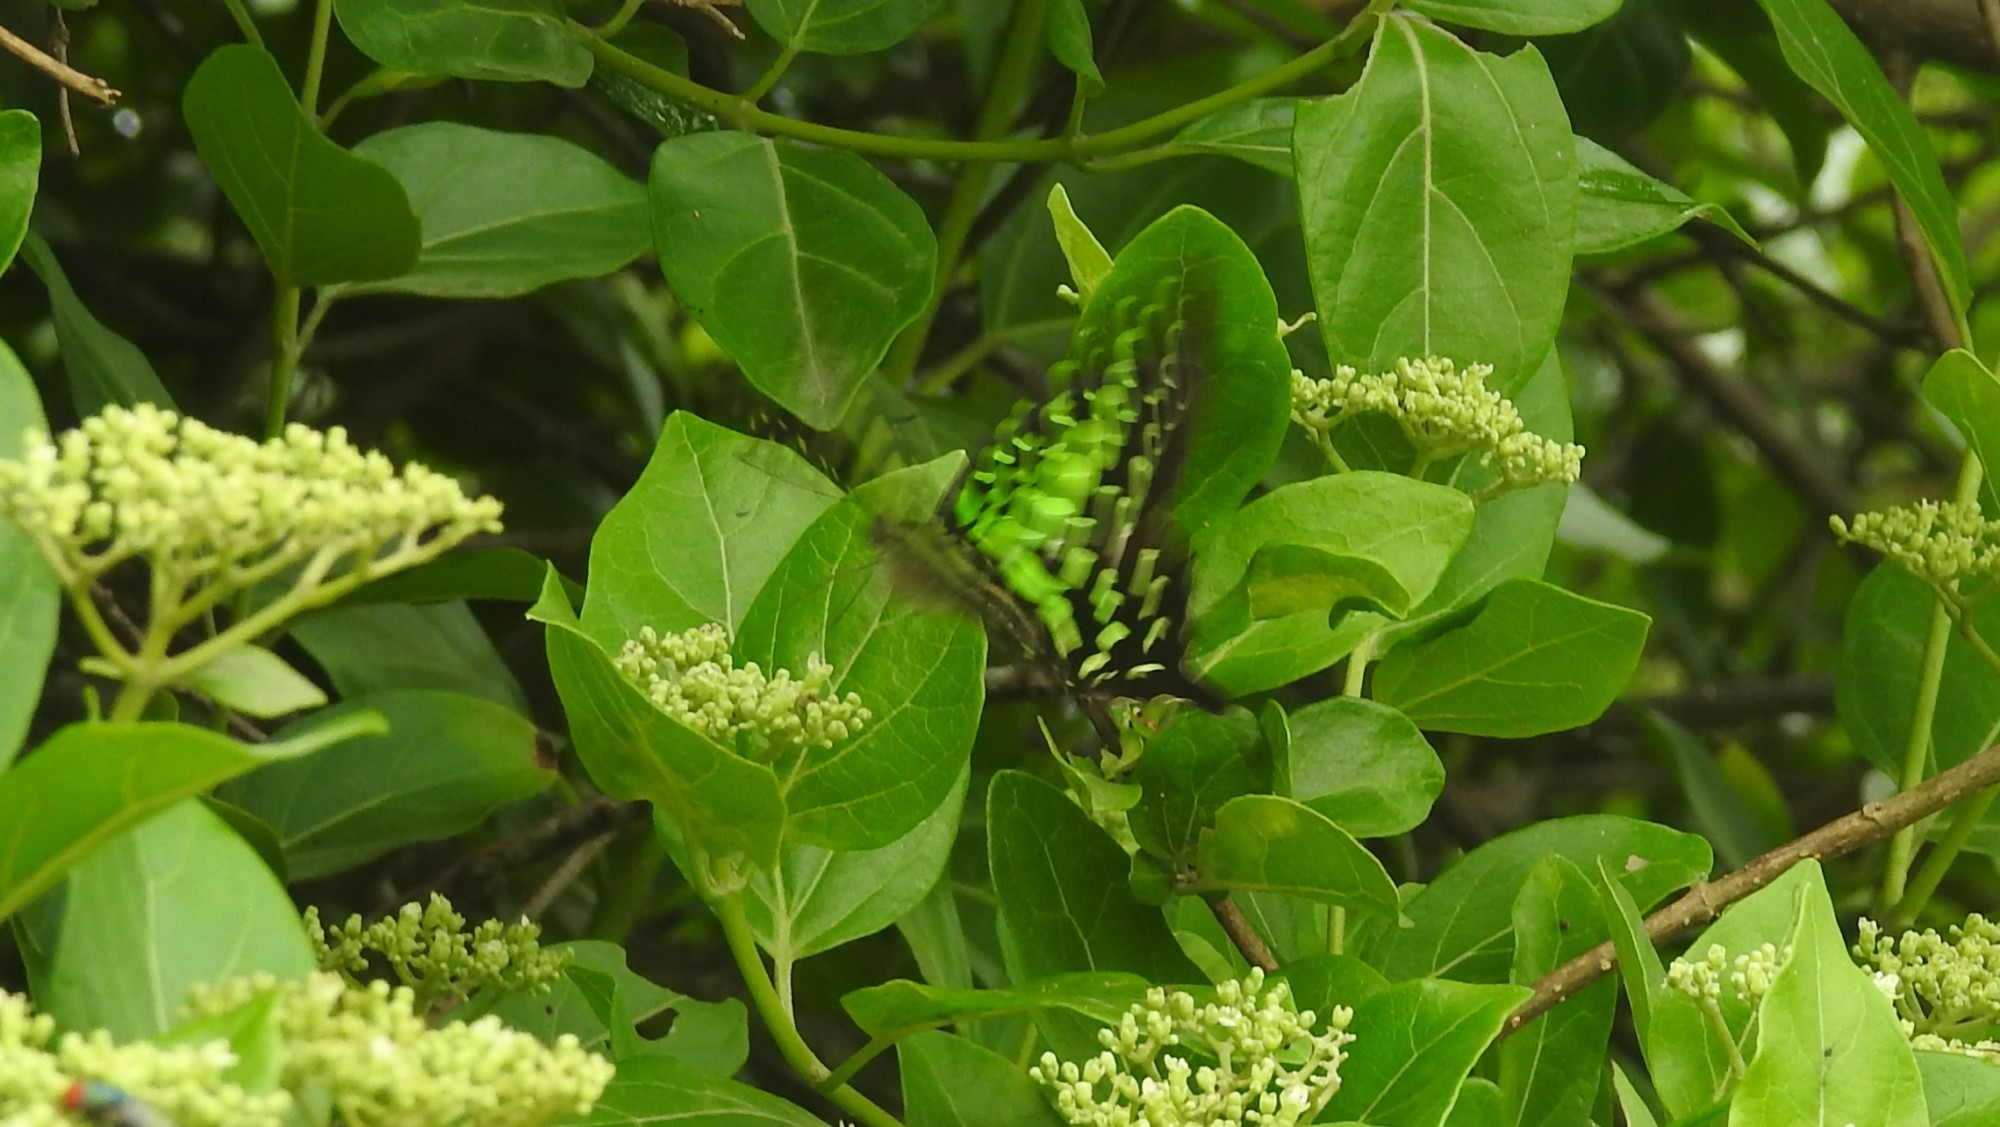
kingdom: Animalia
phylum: Arthropoda
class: Insecta
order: Lepidoptera
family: Papilionidae
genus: Graphium
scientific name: Graphium agamemnon
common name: Tailed jay
